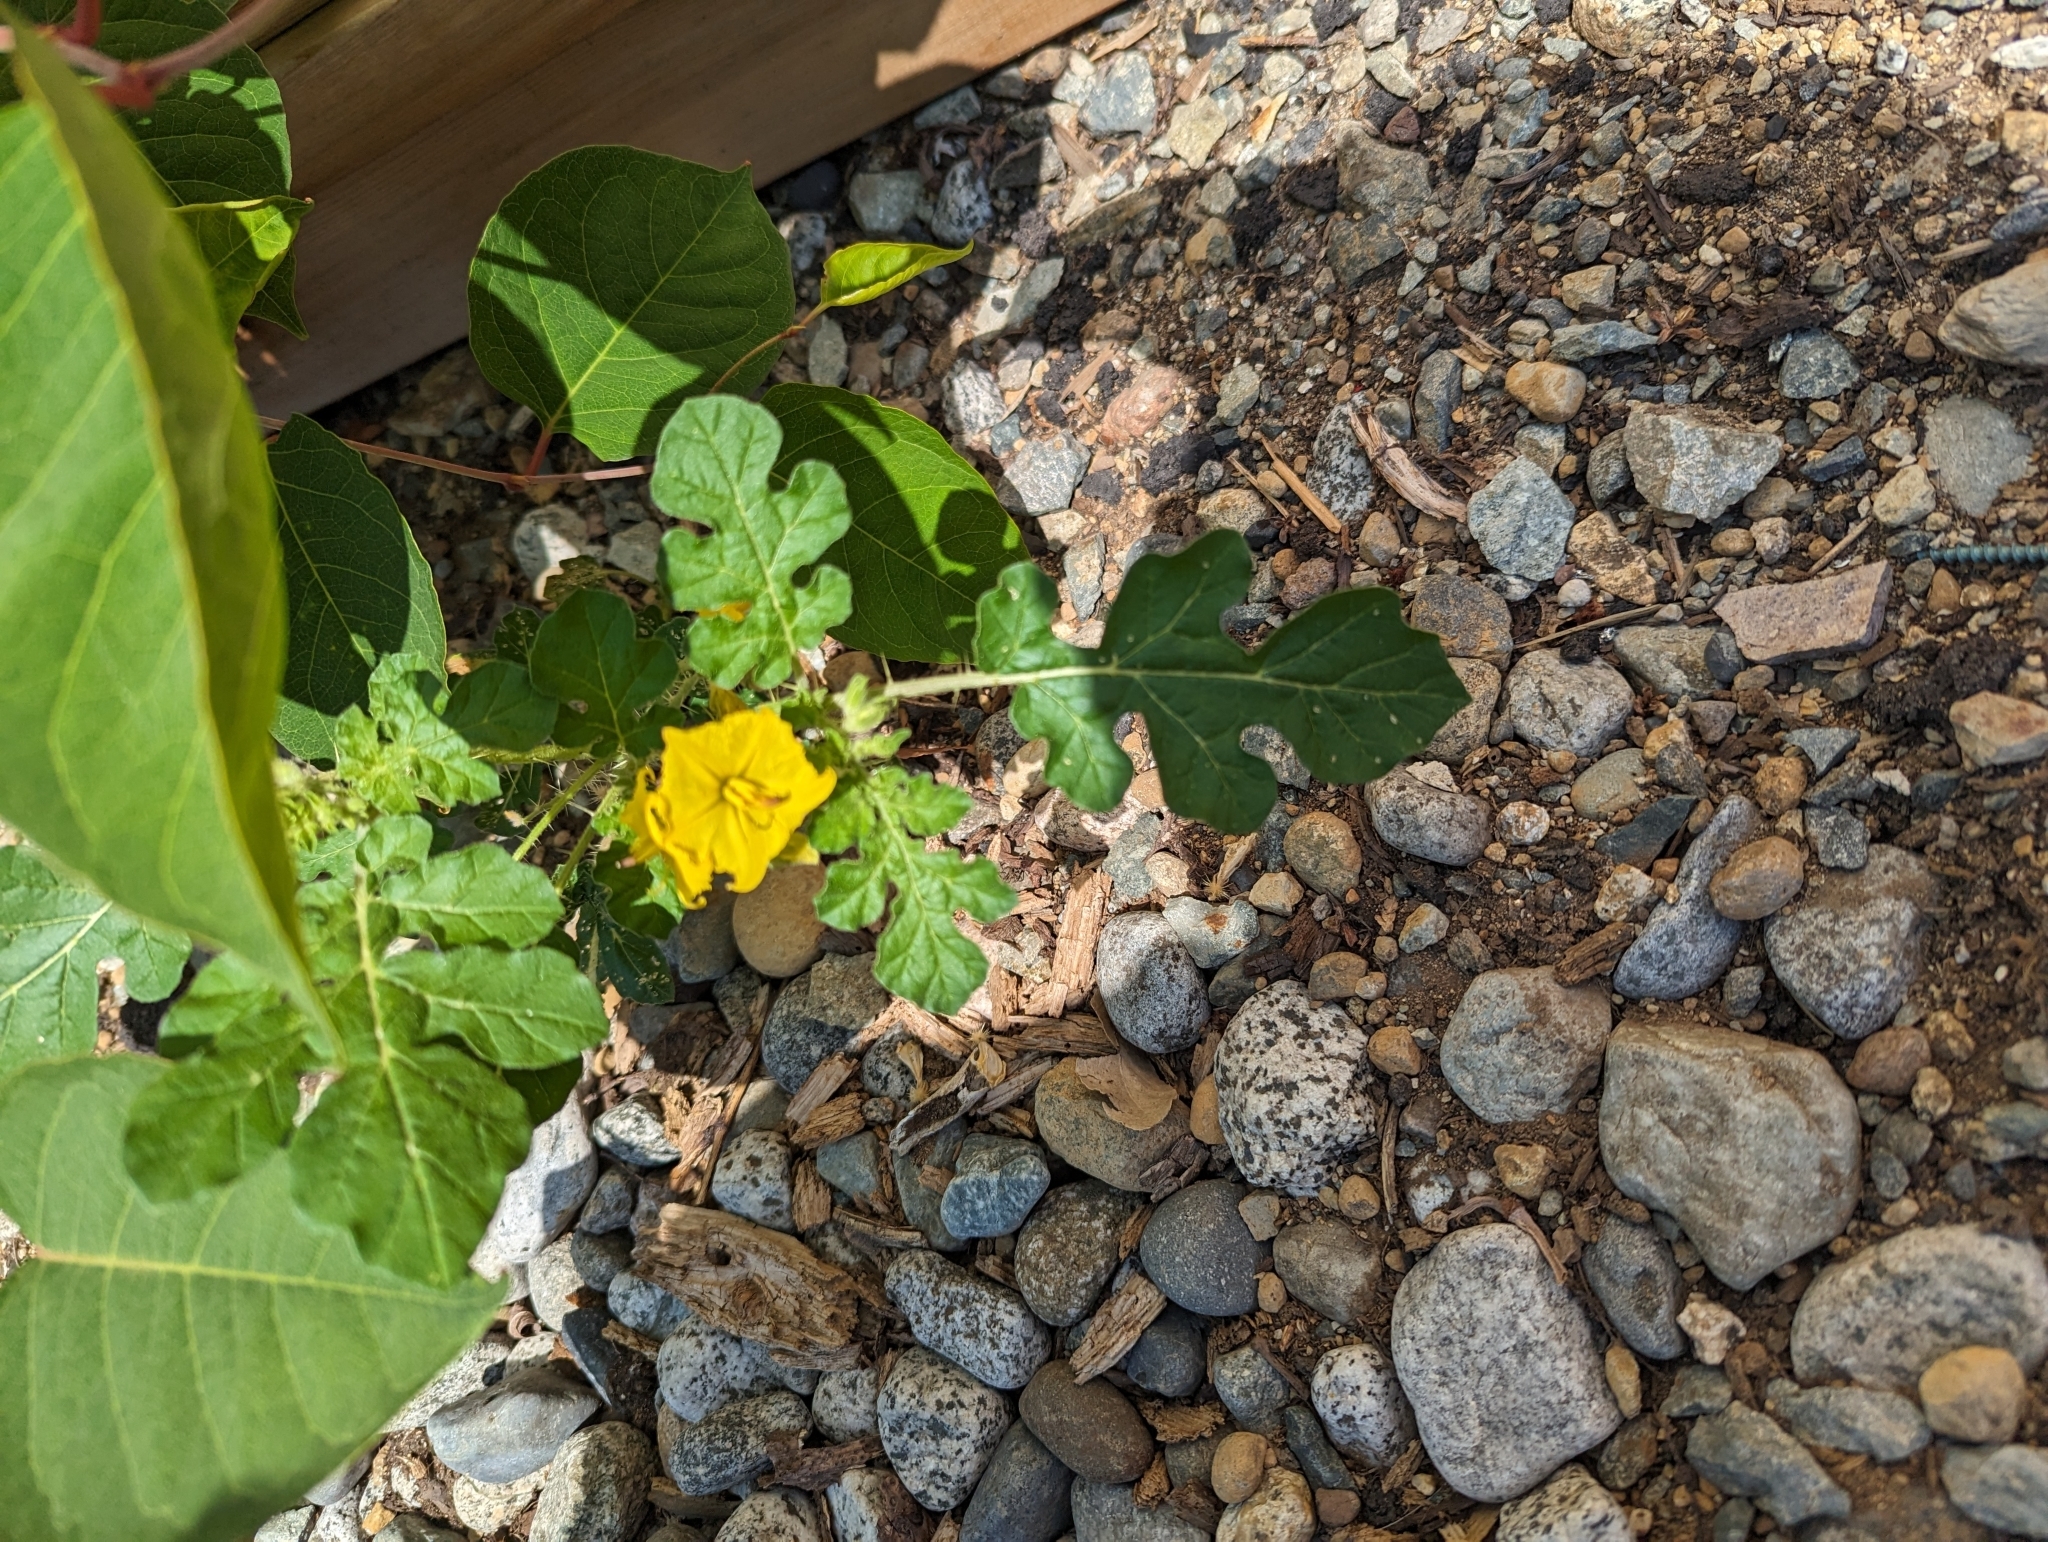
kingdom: Plantae
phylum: Tracheophyta
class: Magnoliopsida
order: Solanales
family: Solanaceae
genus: Solanum
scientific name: Solanum angustifolium
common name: Buffalobur nightshade
